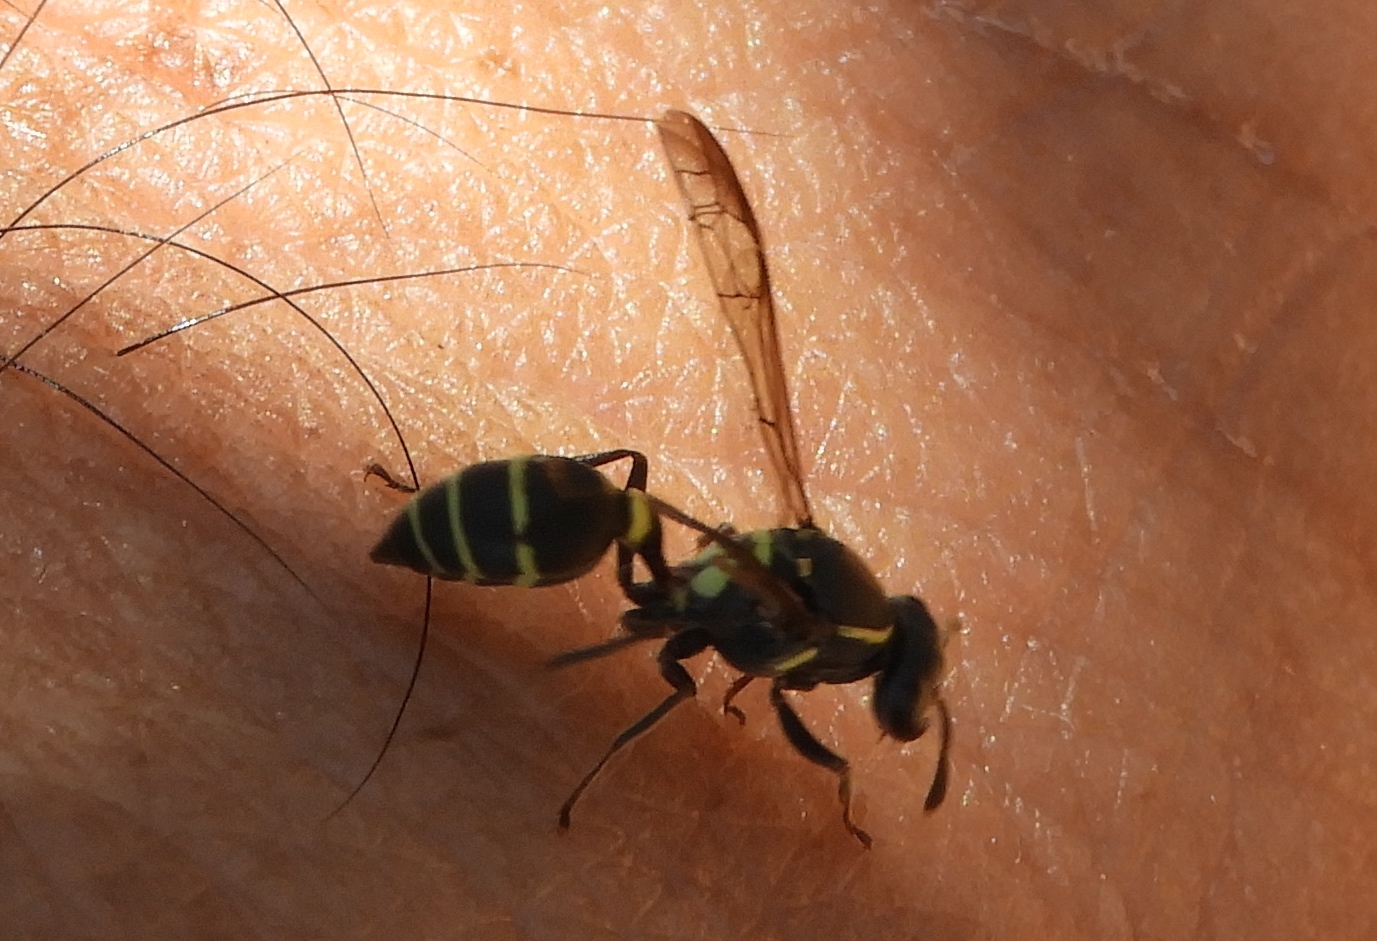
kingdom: Animalia
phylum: Arthropoda
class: Insecta
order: Hymenoptera
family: Eumenidae
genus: Polybia
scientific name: Polybia plebeja
